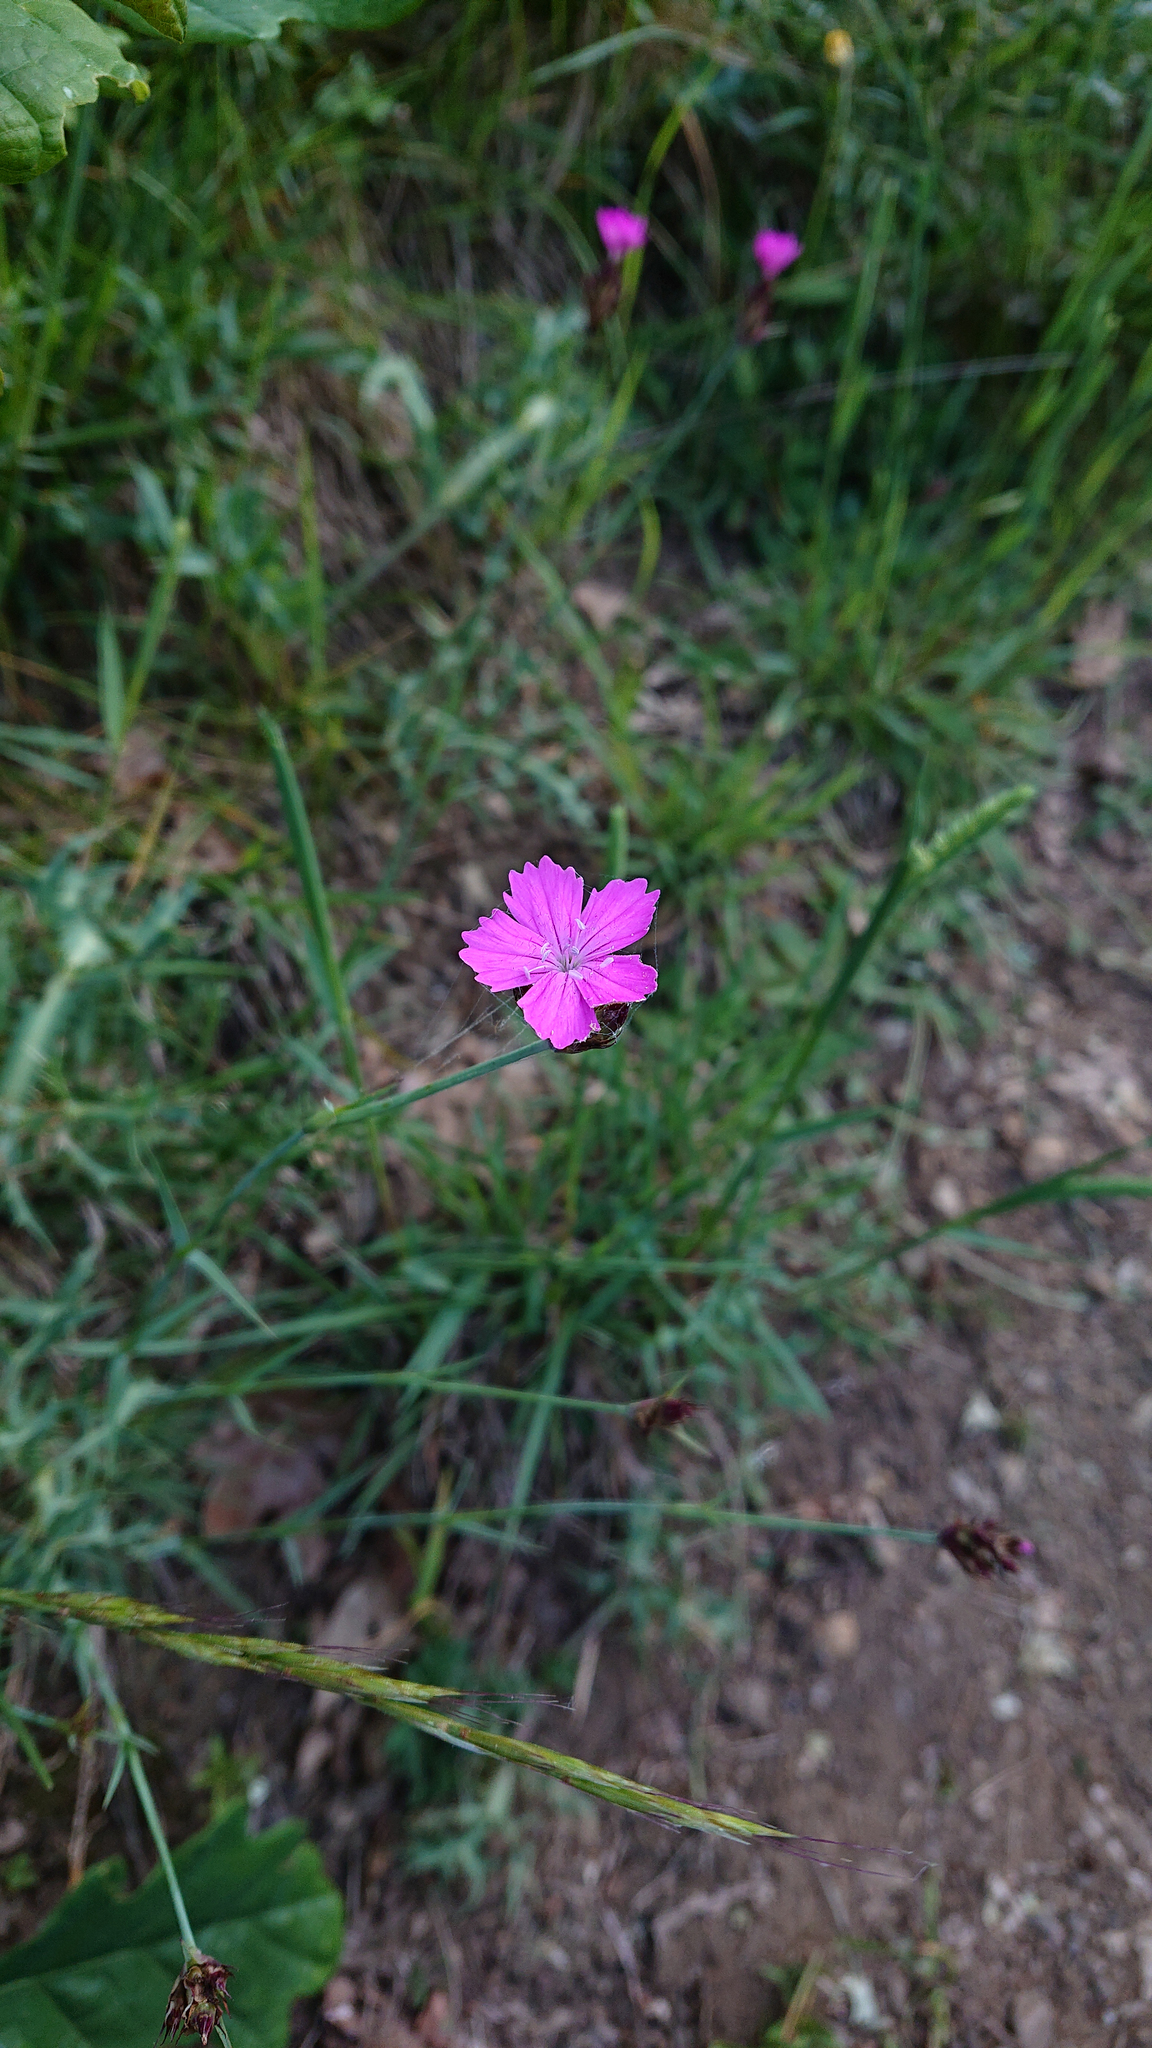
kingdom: Plantae
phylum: Tracheophyta
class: Magnoliopsida
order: Caryophyllales
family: Caryophyllaceae
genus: Dianthus
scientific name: Dianthus carthusianorum
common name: Carthusian pink
